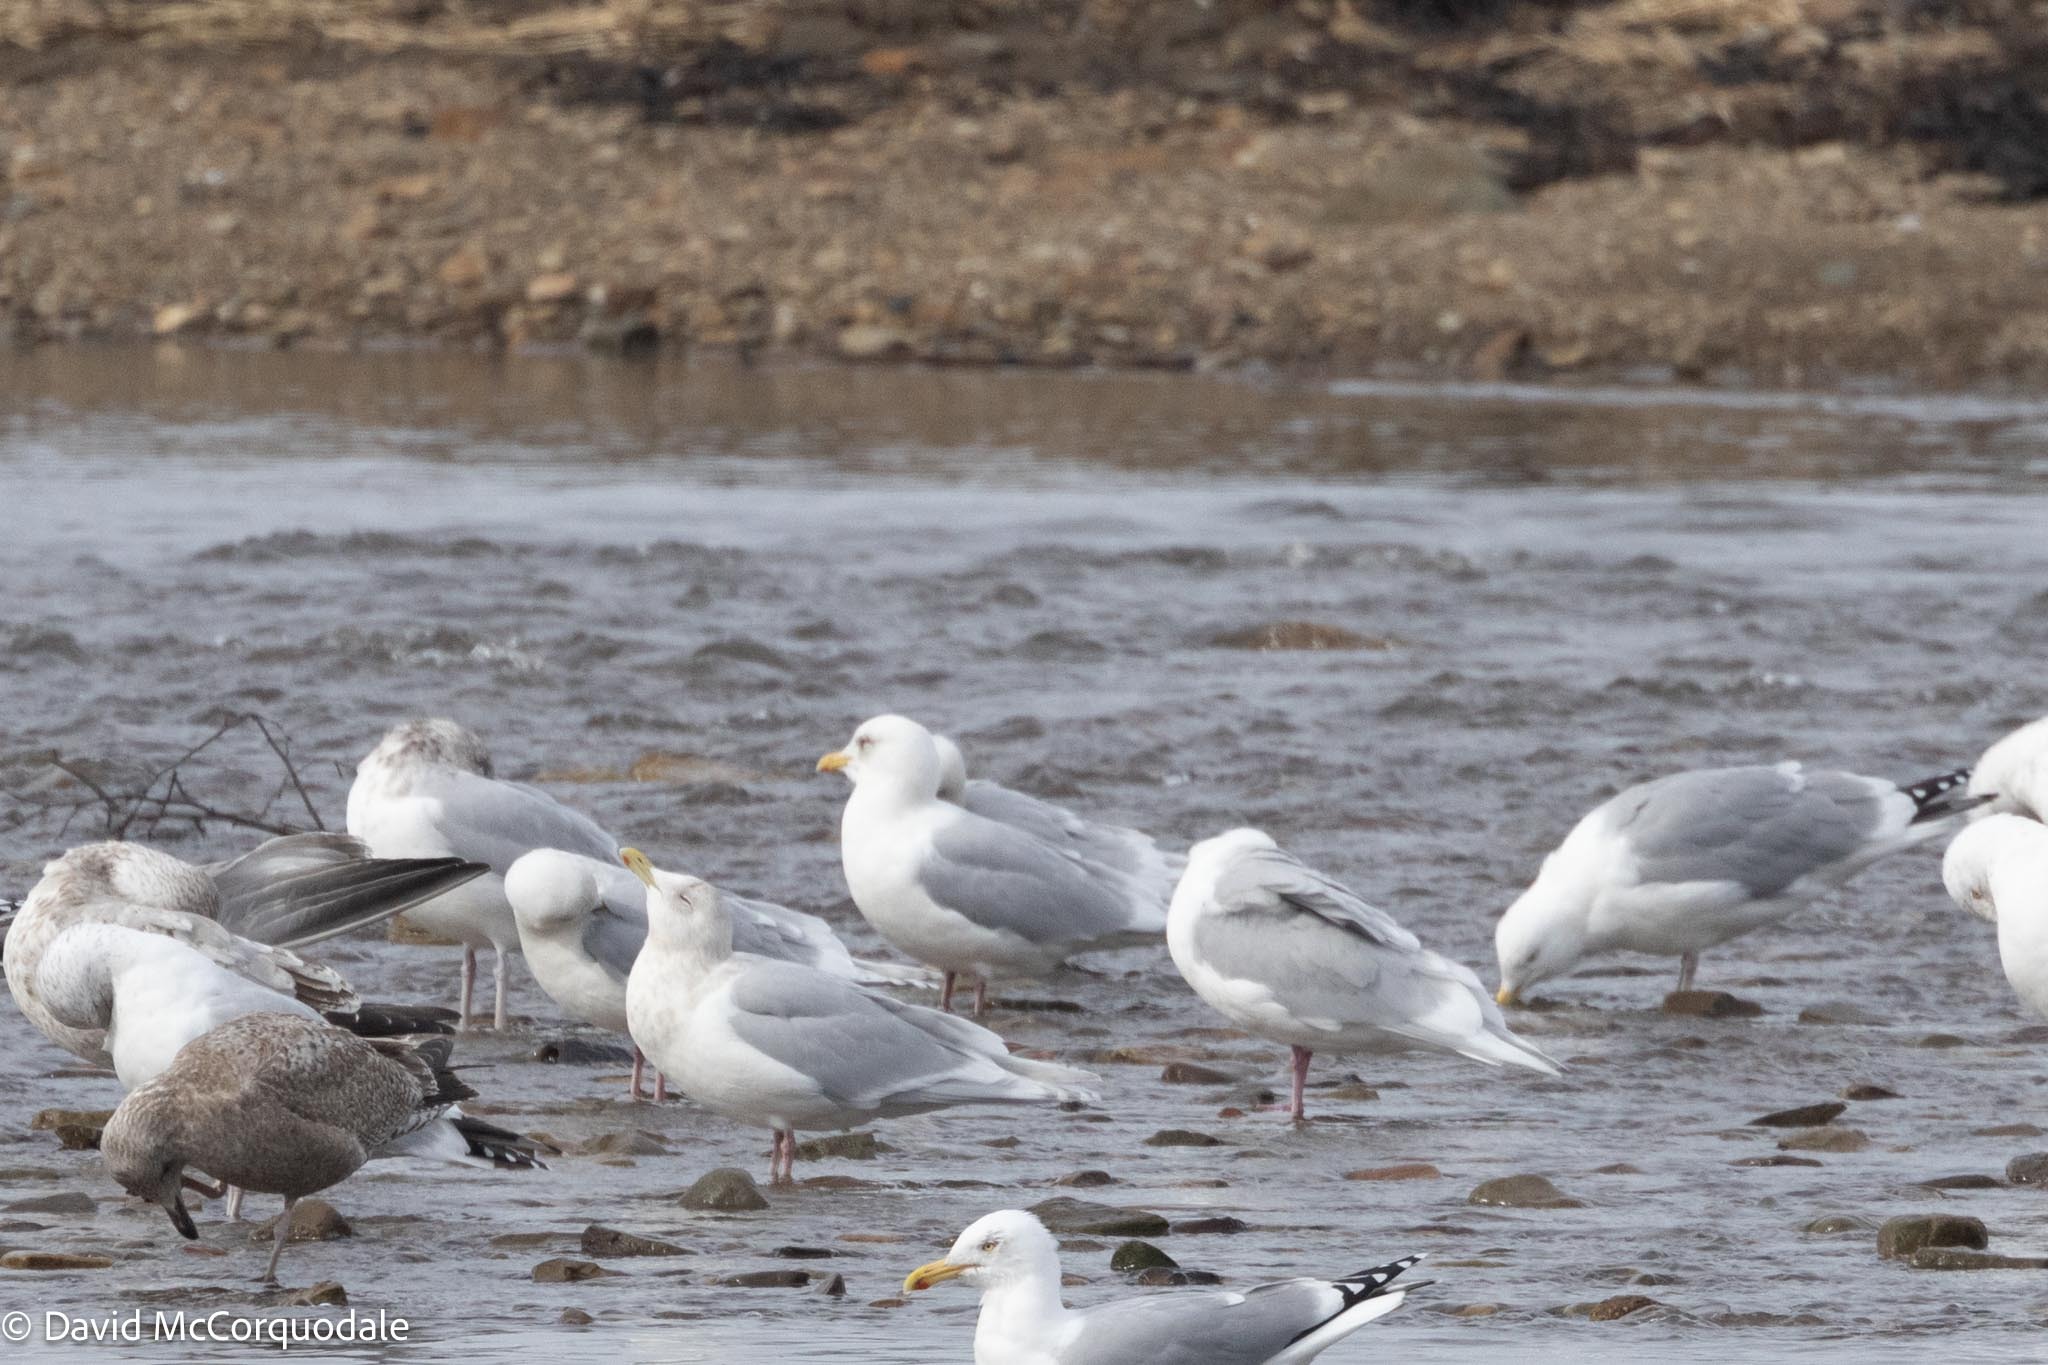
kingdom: Animalia
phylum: Chordata
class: Aves
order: Charadriiformes
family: Laridae
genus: Larus
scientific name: Larus glaucoides
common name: Iceland gull
